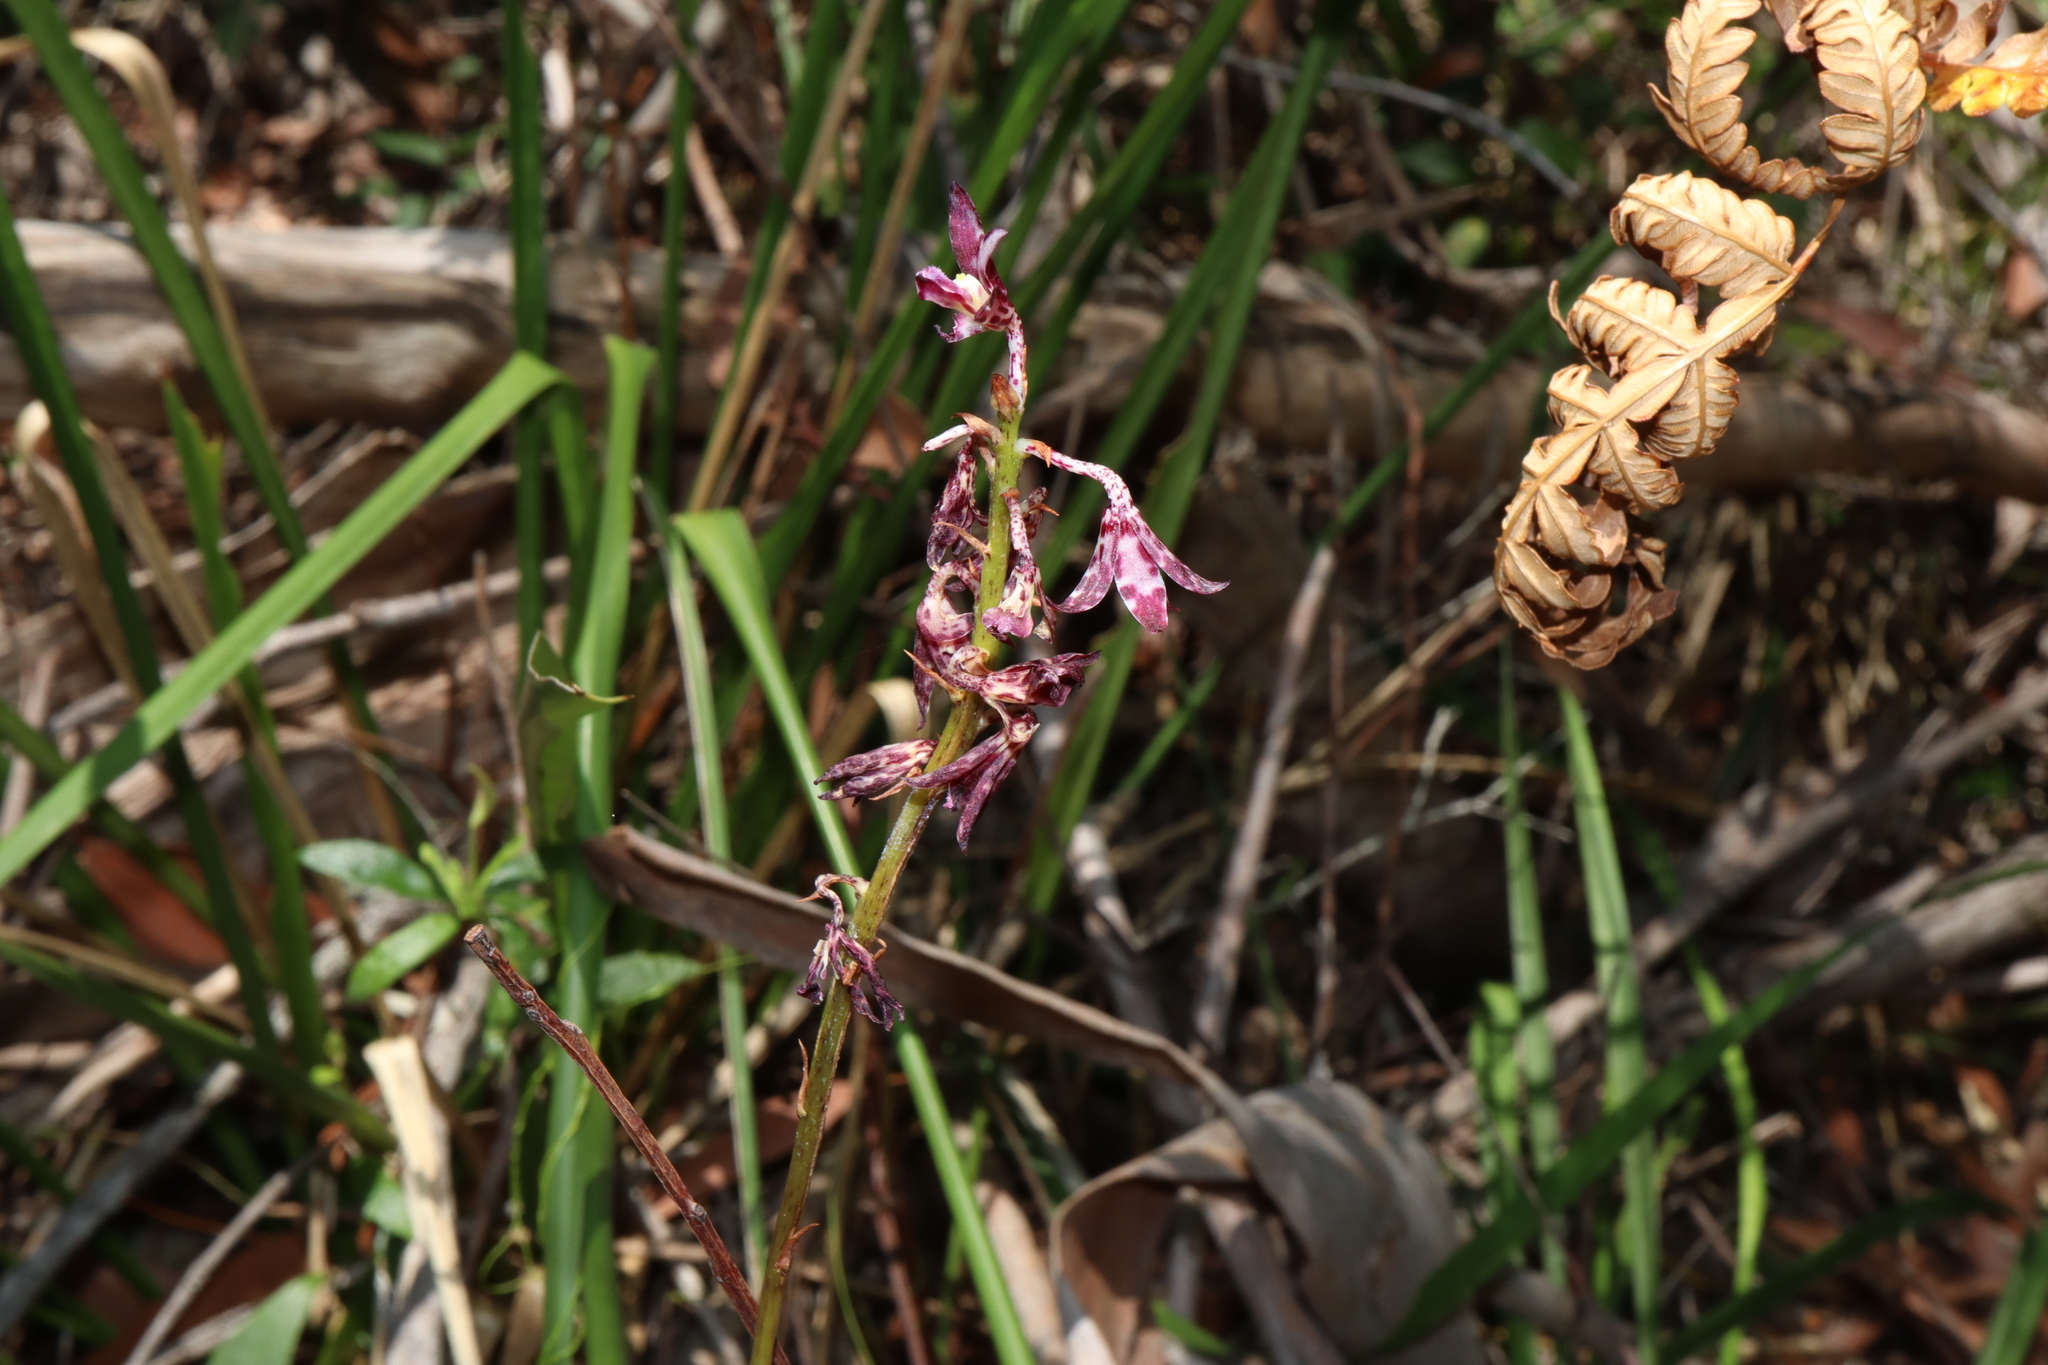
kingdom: Plantae
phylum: Tracheophyta
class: Liliopsida
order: Asparagales
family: Orchidaceae
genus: Dipodium
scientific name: Dipodium variegatum
